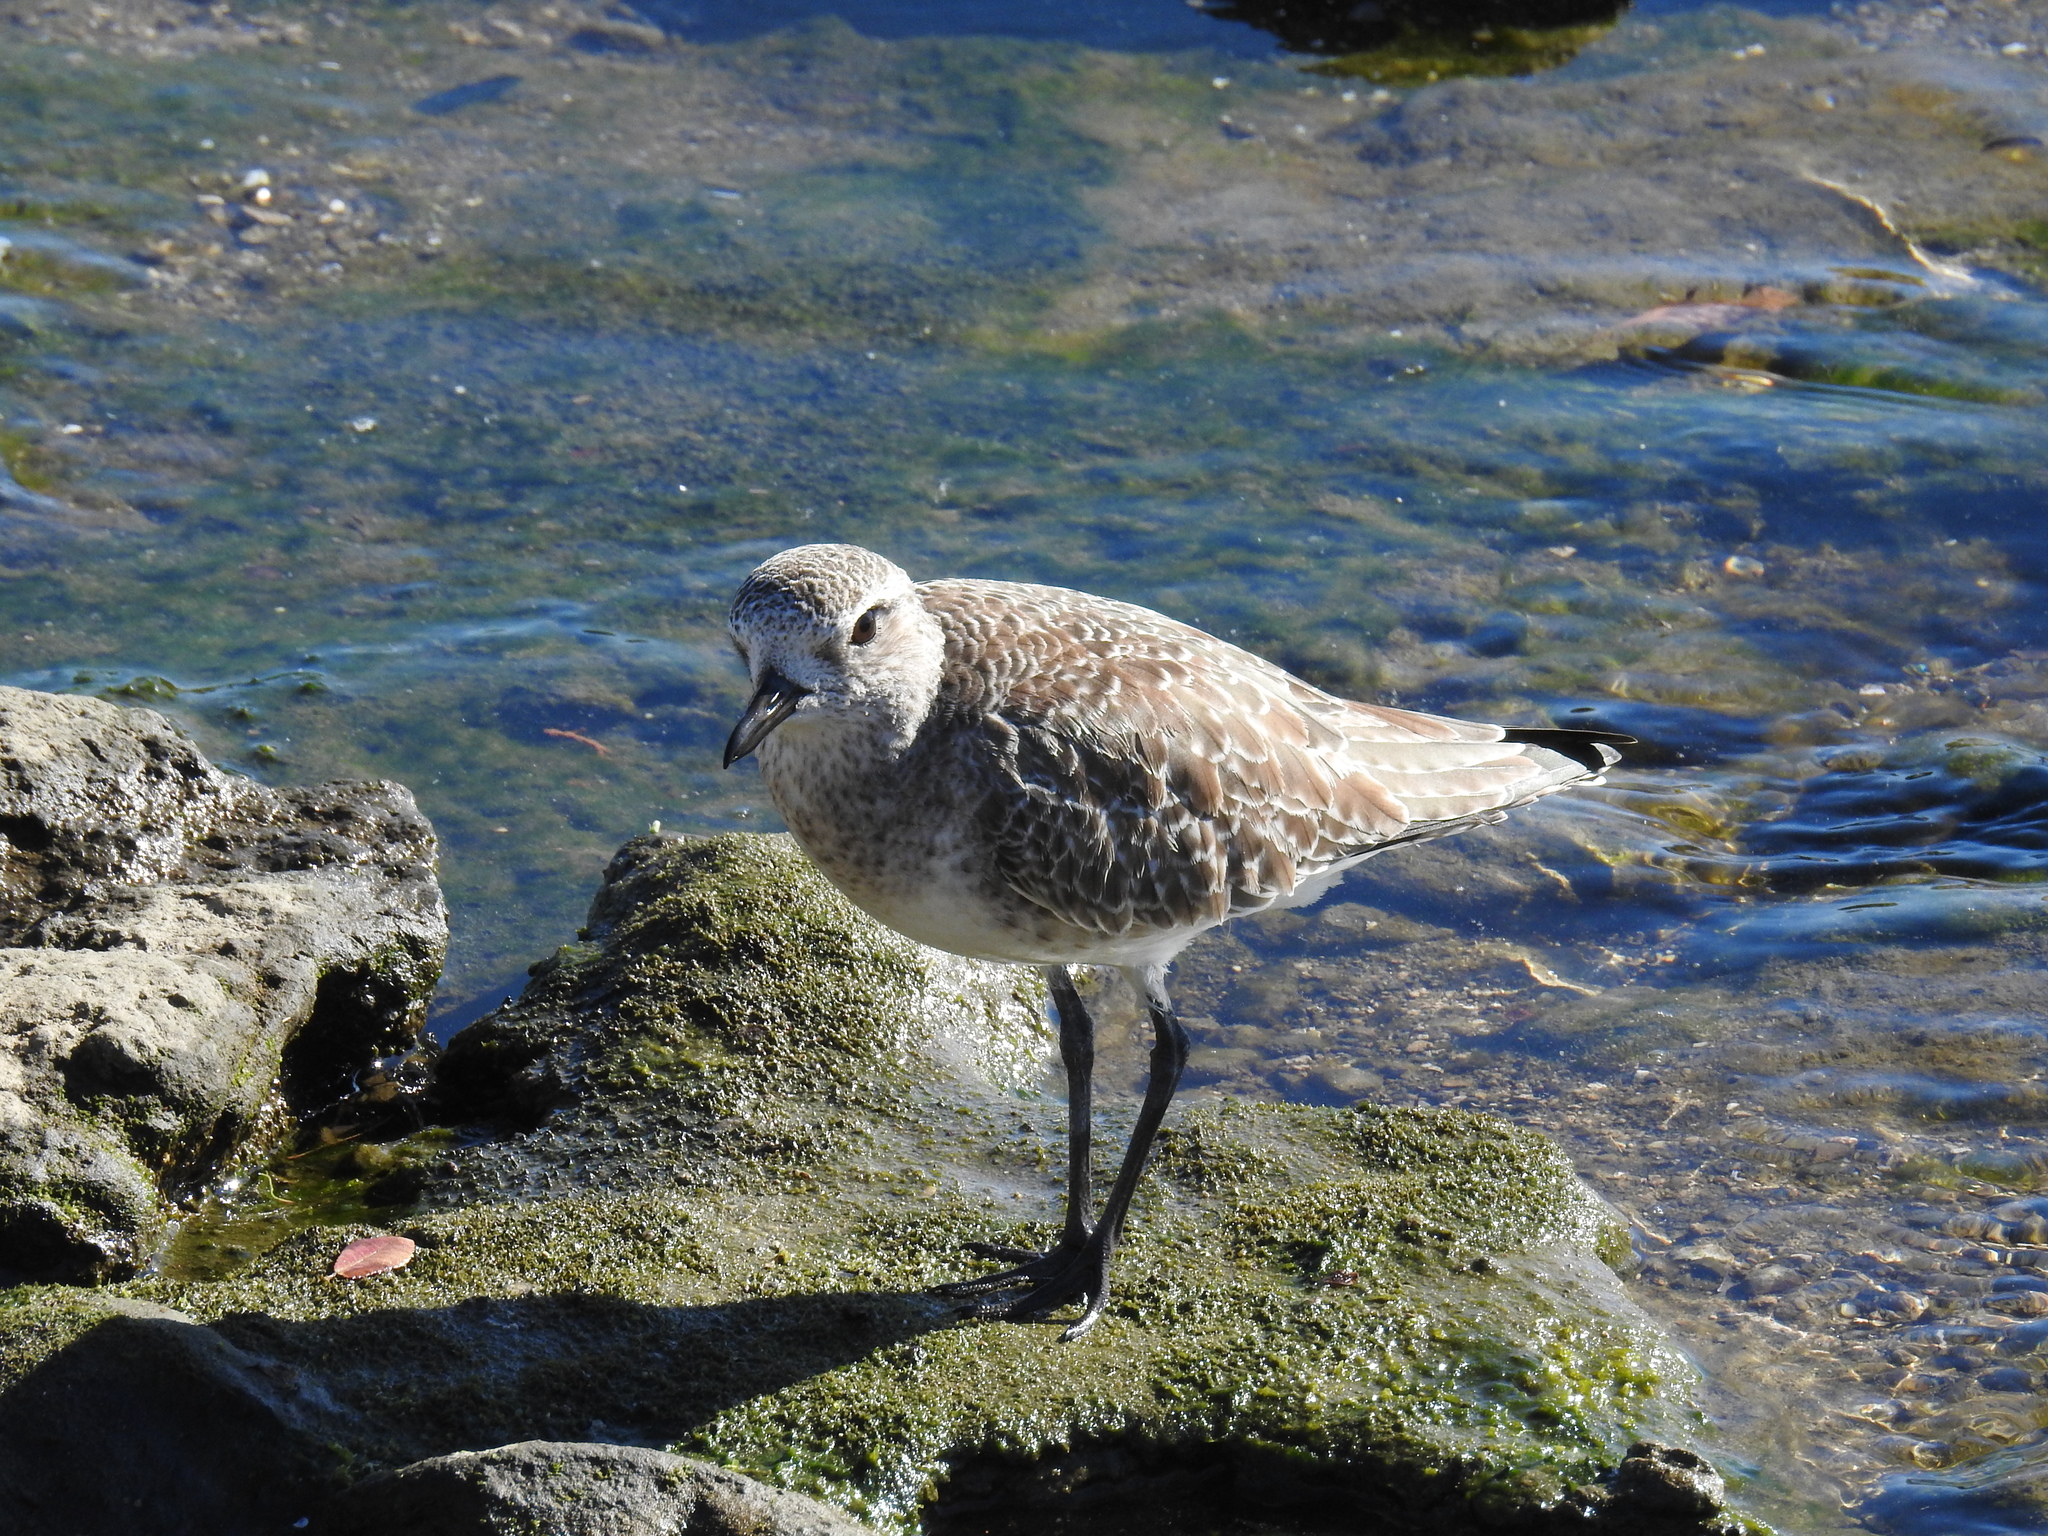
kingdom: Animalia
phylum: Chordata
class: Aves
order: Charadriiformes
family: Charadriidae
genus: Pluvialis
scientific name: Pluvialis squatarola
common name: Grey plover
